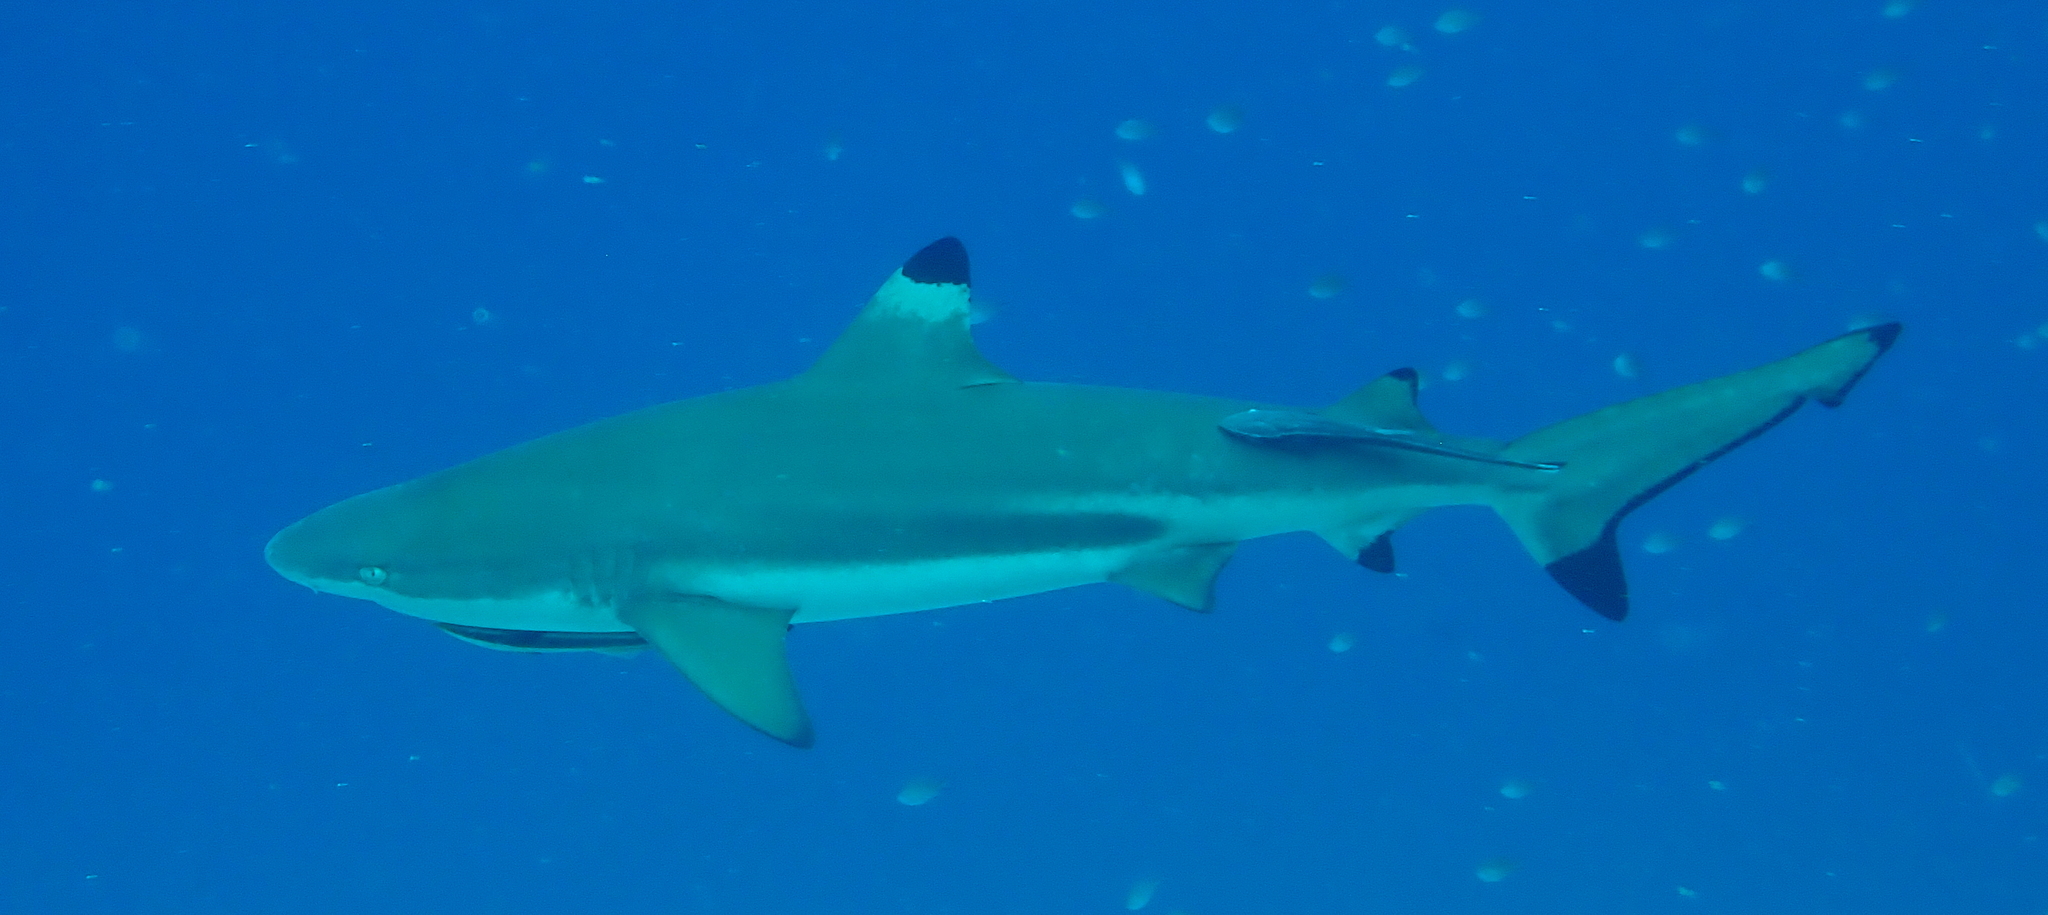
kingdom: Animalia
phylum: Chordata
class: Elasmobranchii
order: Carcharhiniformes
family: Carcharhinidae
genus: Carcharhinus
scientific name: Carcharhinus melanopterus
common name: Blacktip reef shark
